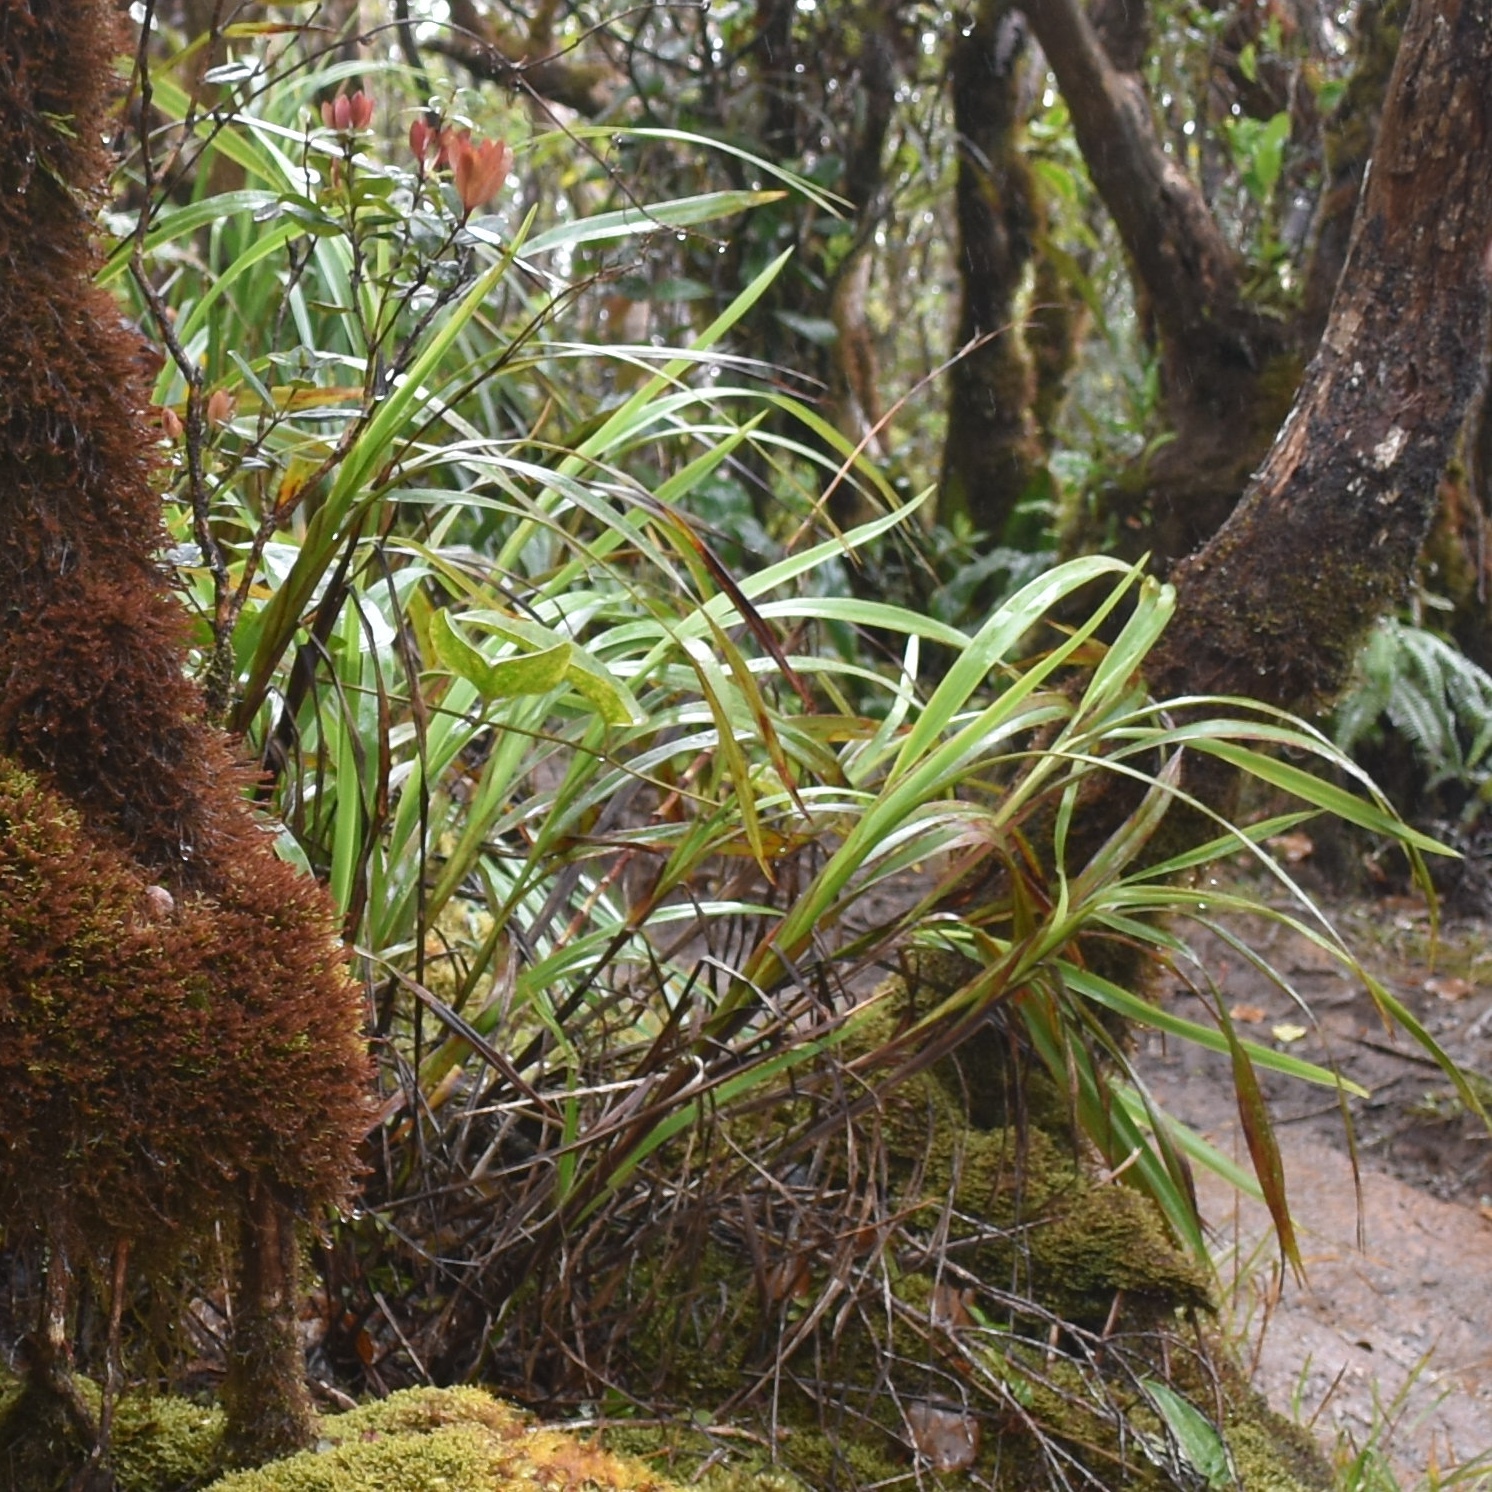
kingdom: Plantae
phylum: Tracheophyta
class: Liliopsida
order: Asparagales
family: Asphodelaceae
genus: Dianella
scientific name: Dianella sandwicensis
